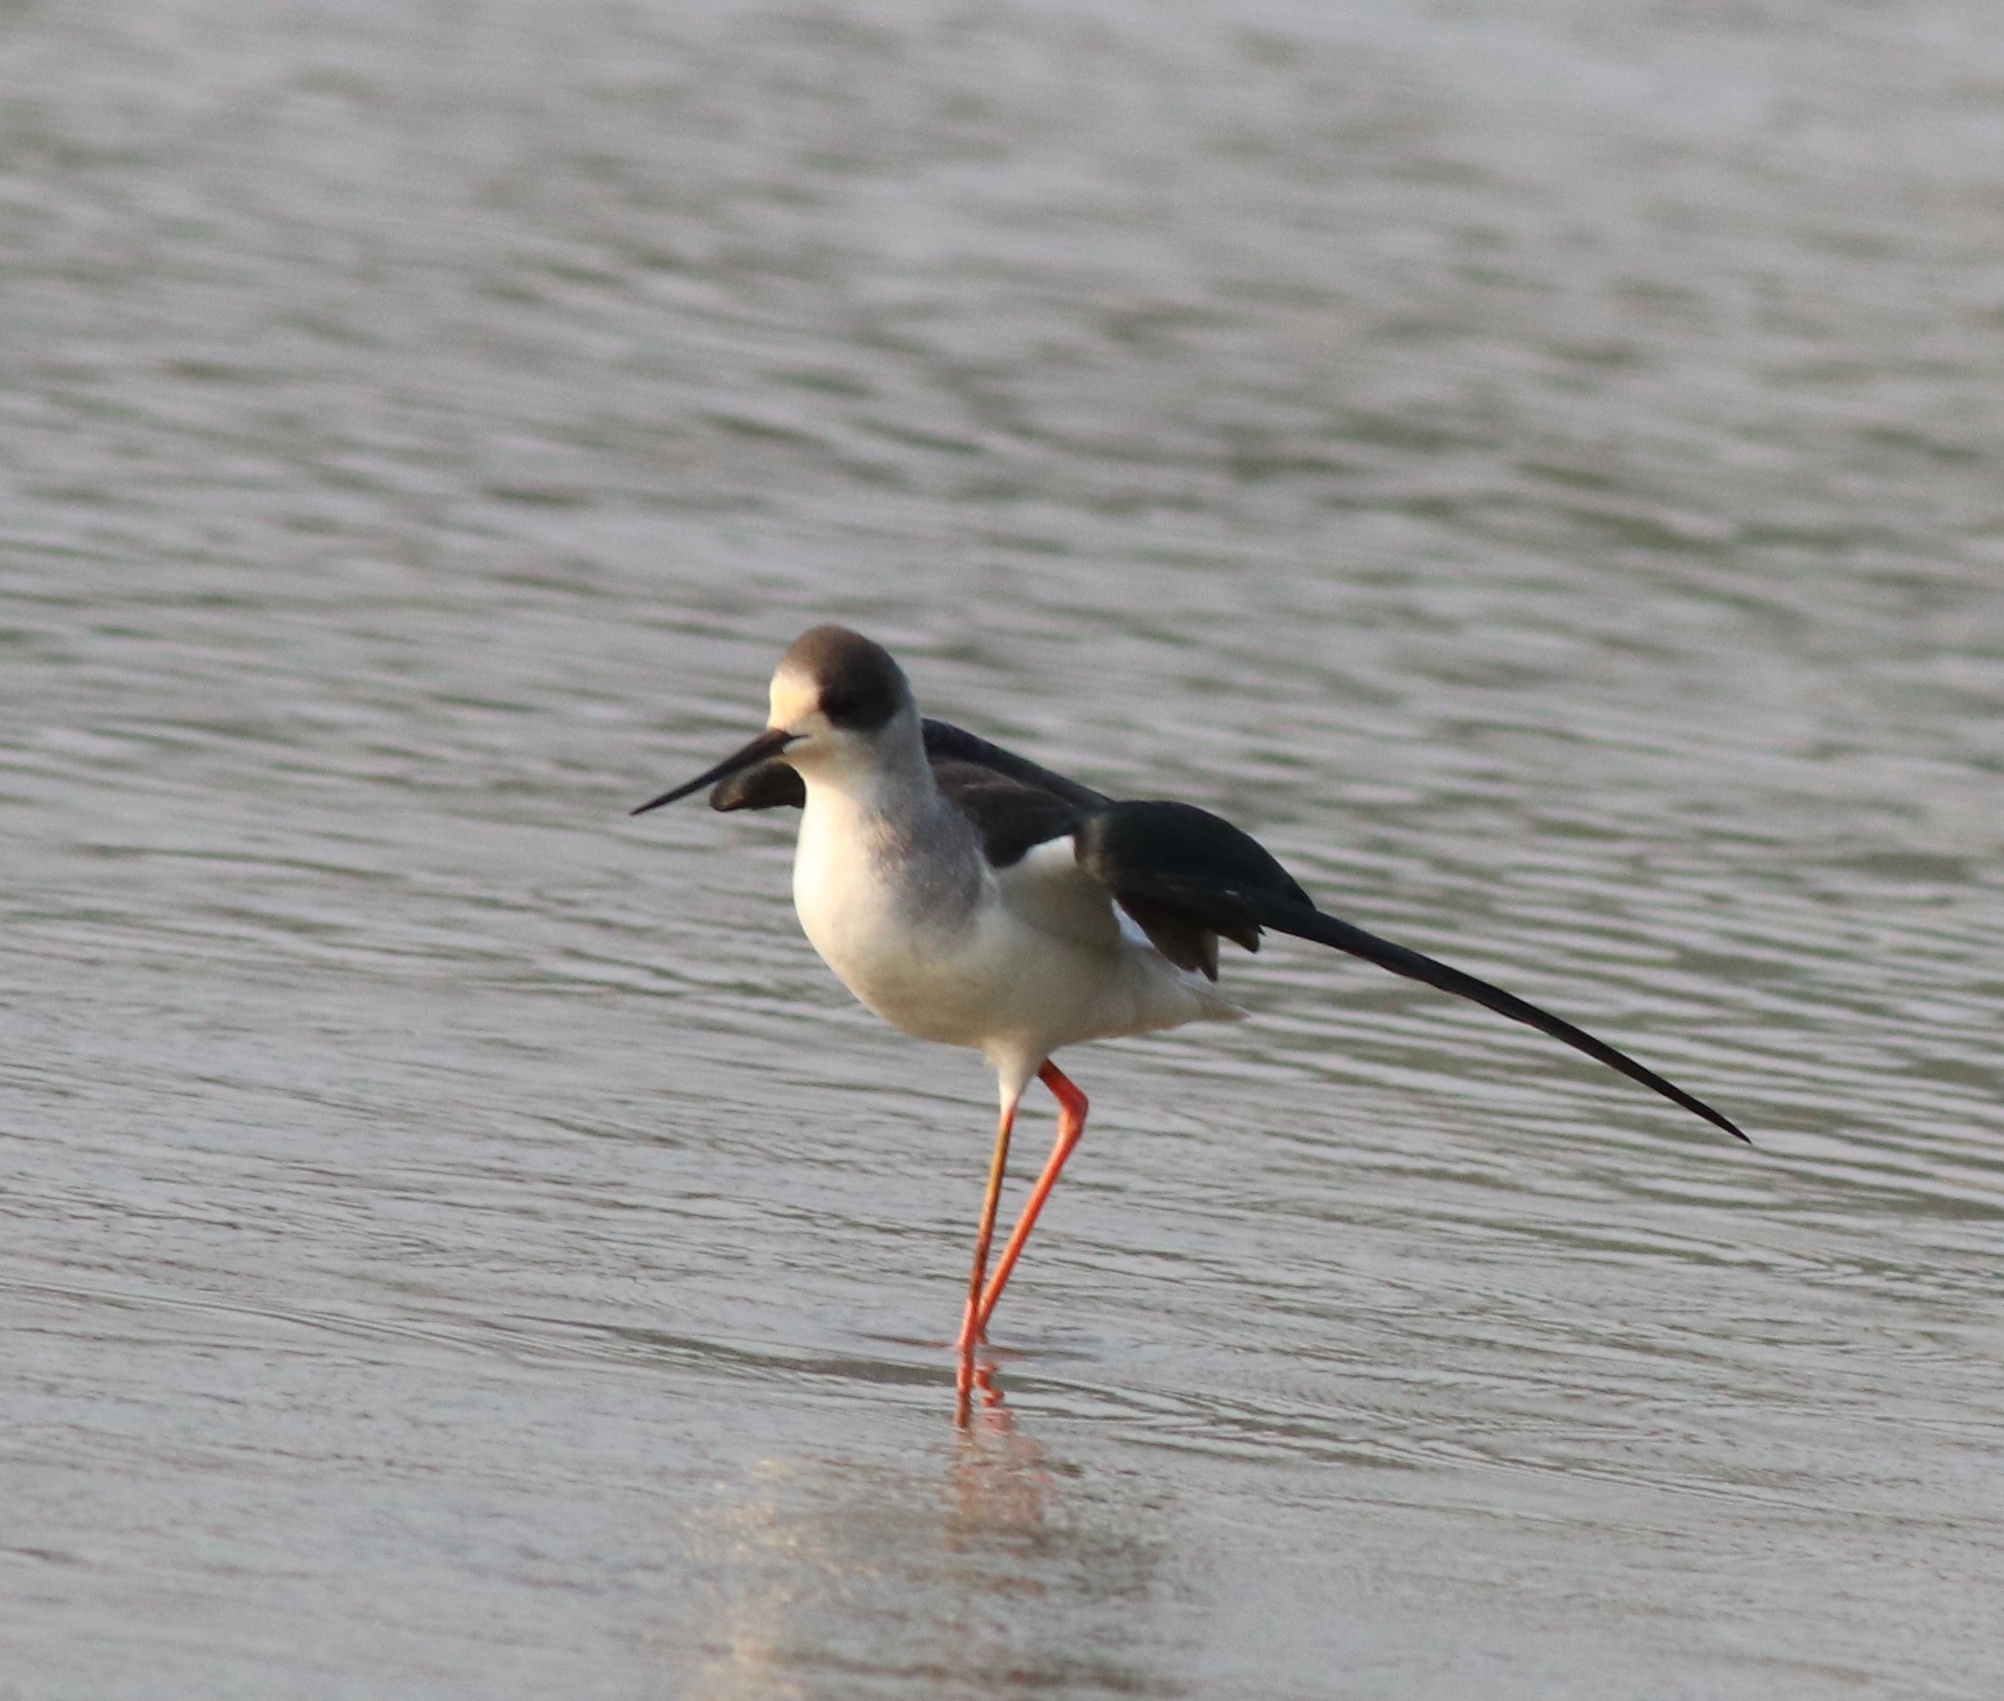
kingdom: Animalia
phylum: Chordata
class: Aves
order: Charadriiformes
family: Recurvirostridae
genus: Himantopus
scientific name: Himantopus himantopus
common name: Black-winged stilt
